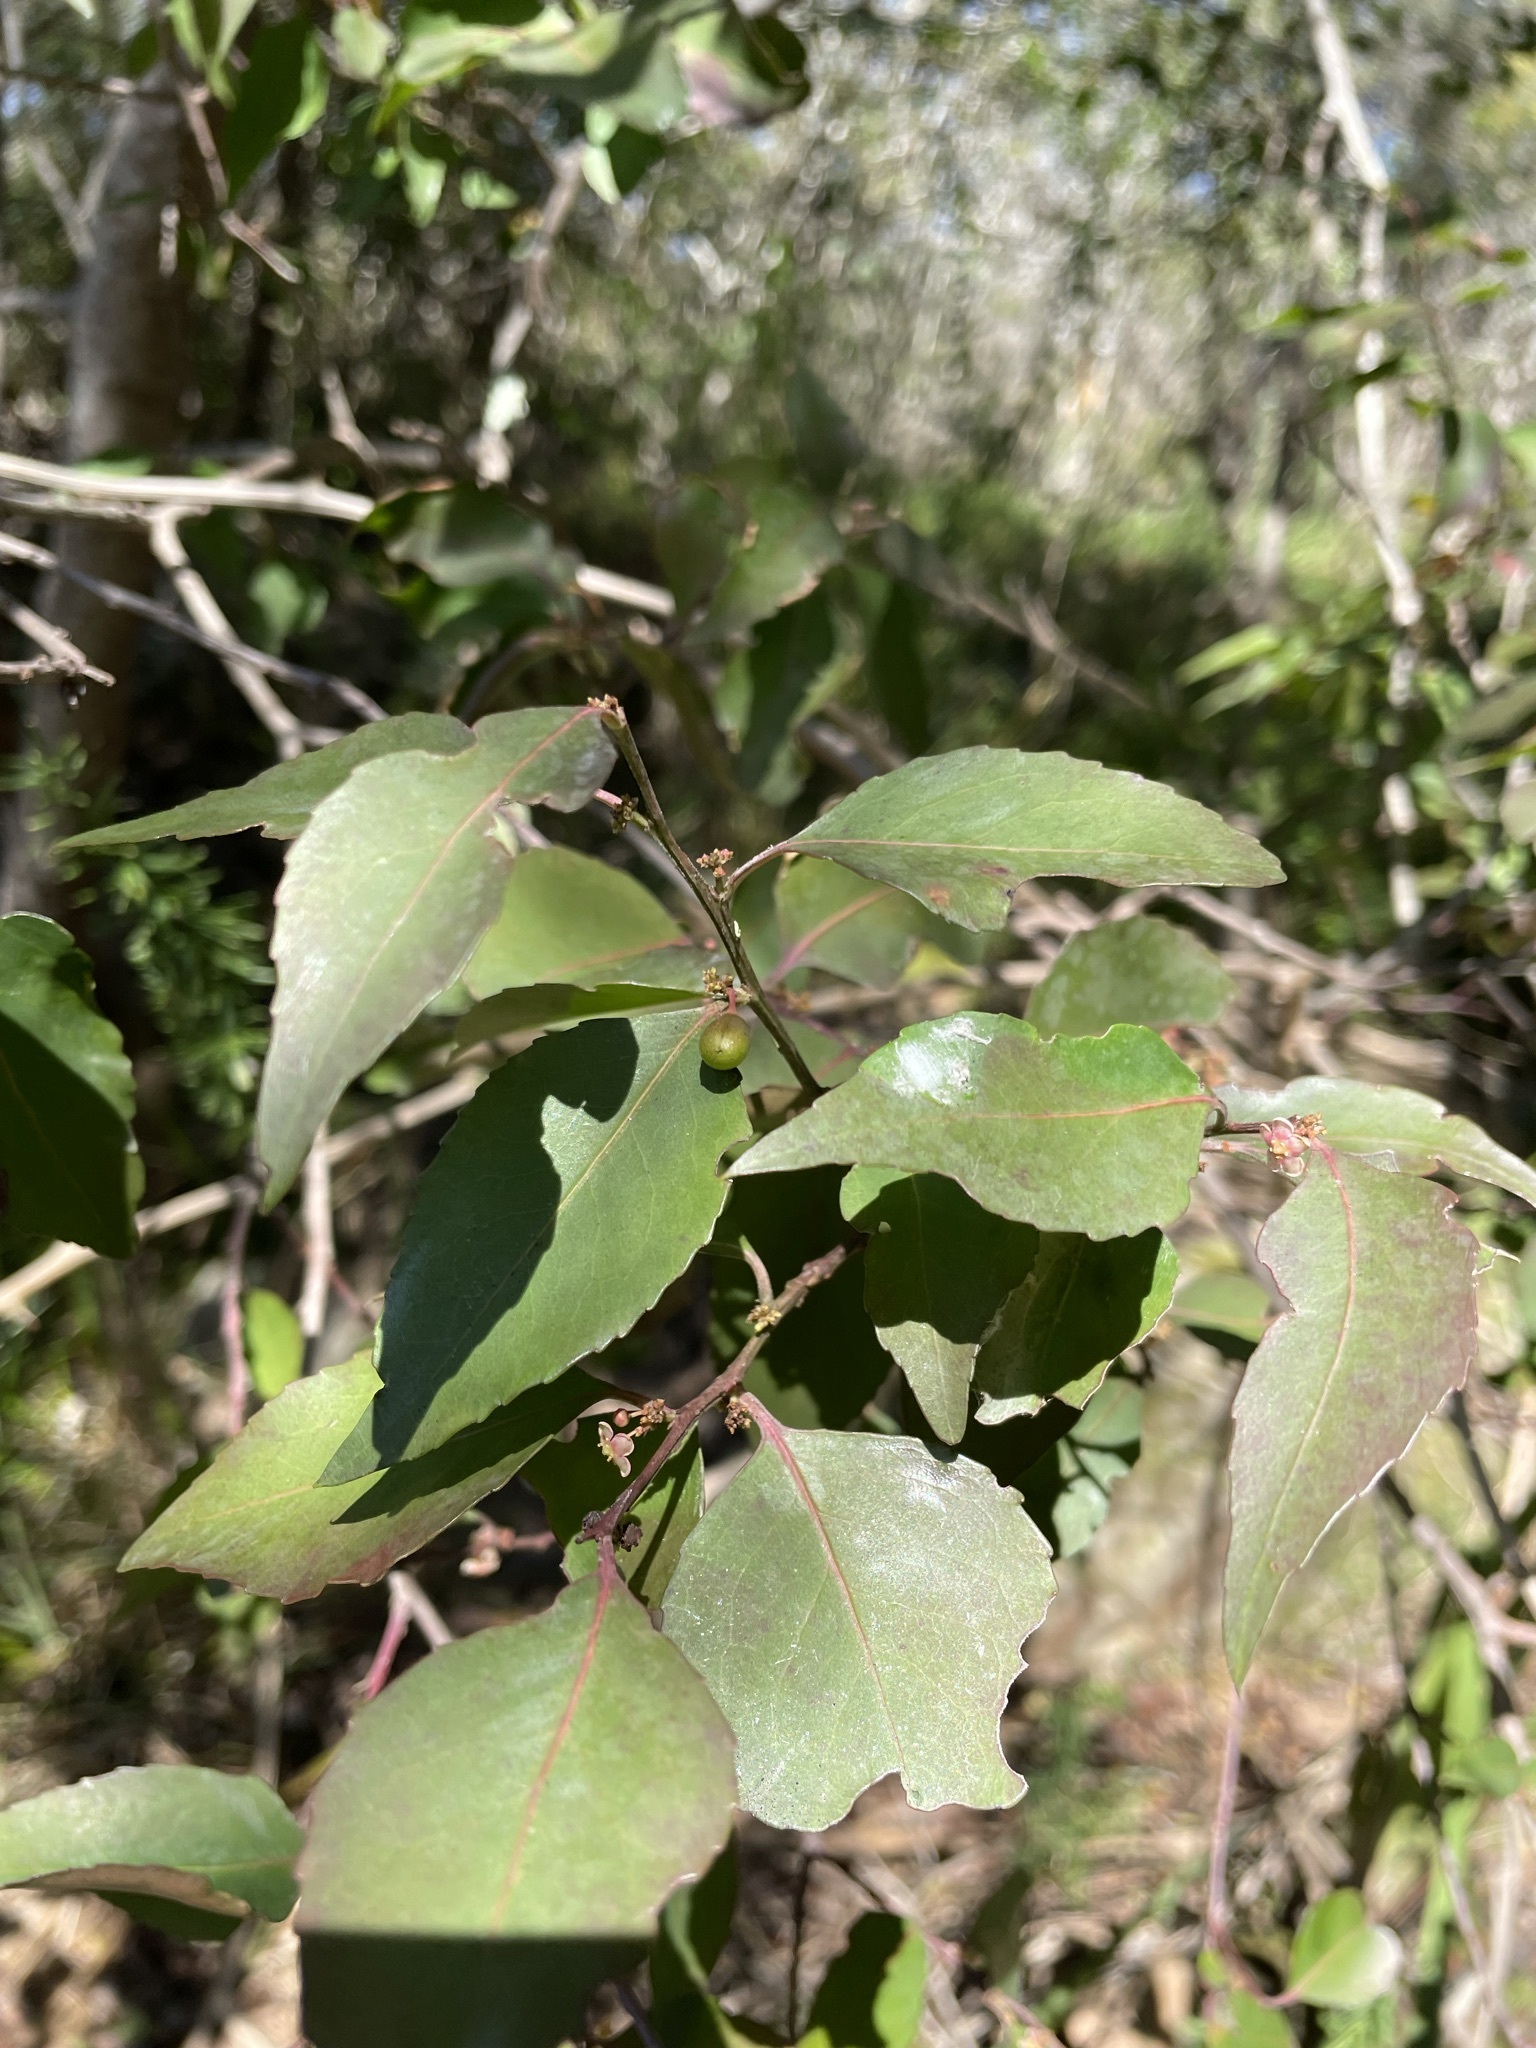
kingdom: Plantae
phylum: Tracheophyta
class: Magnoliopsida
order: Celastrales
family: Celastraceae
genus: Gymnosporia
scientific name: Gymnosporia acuminata
